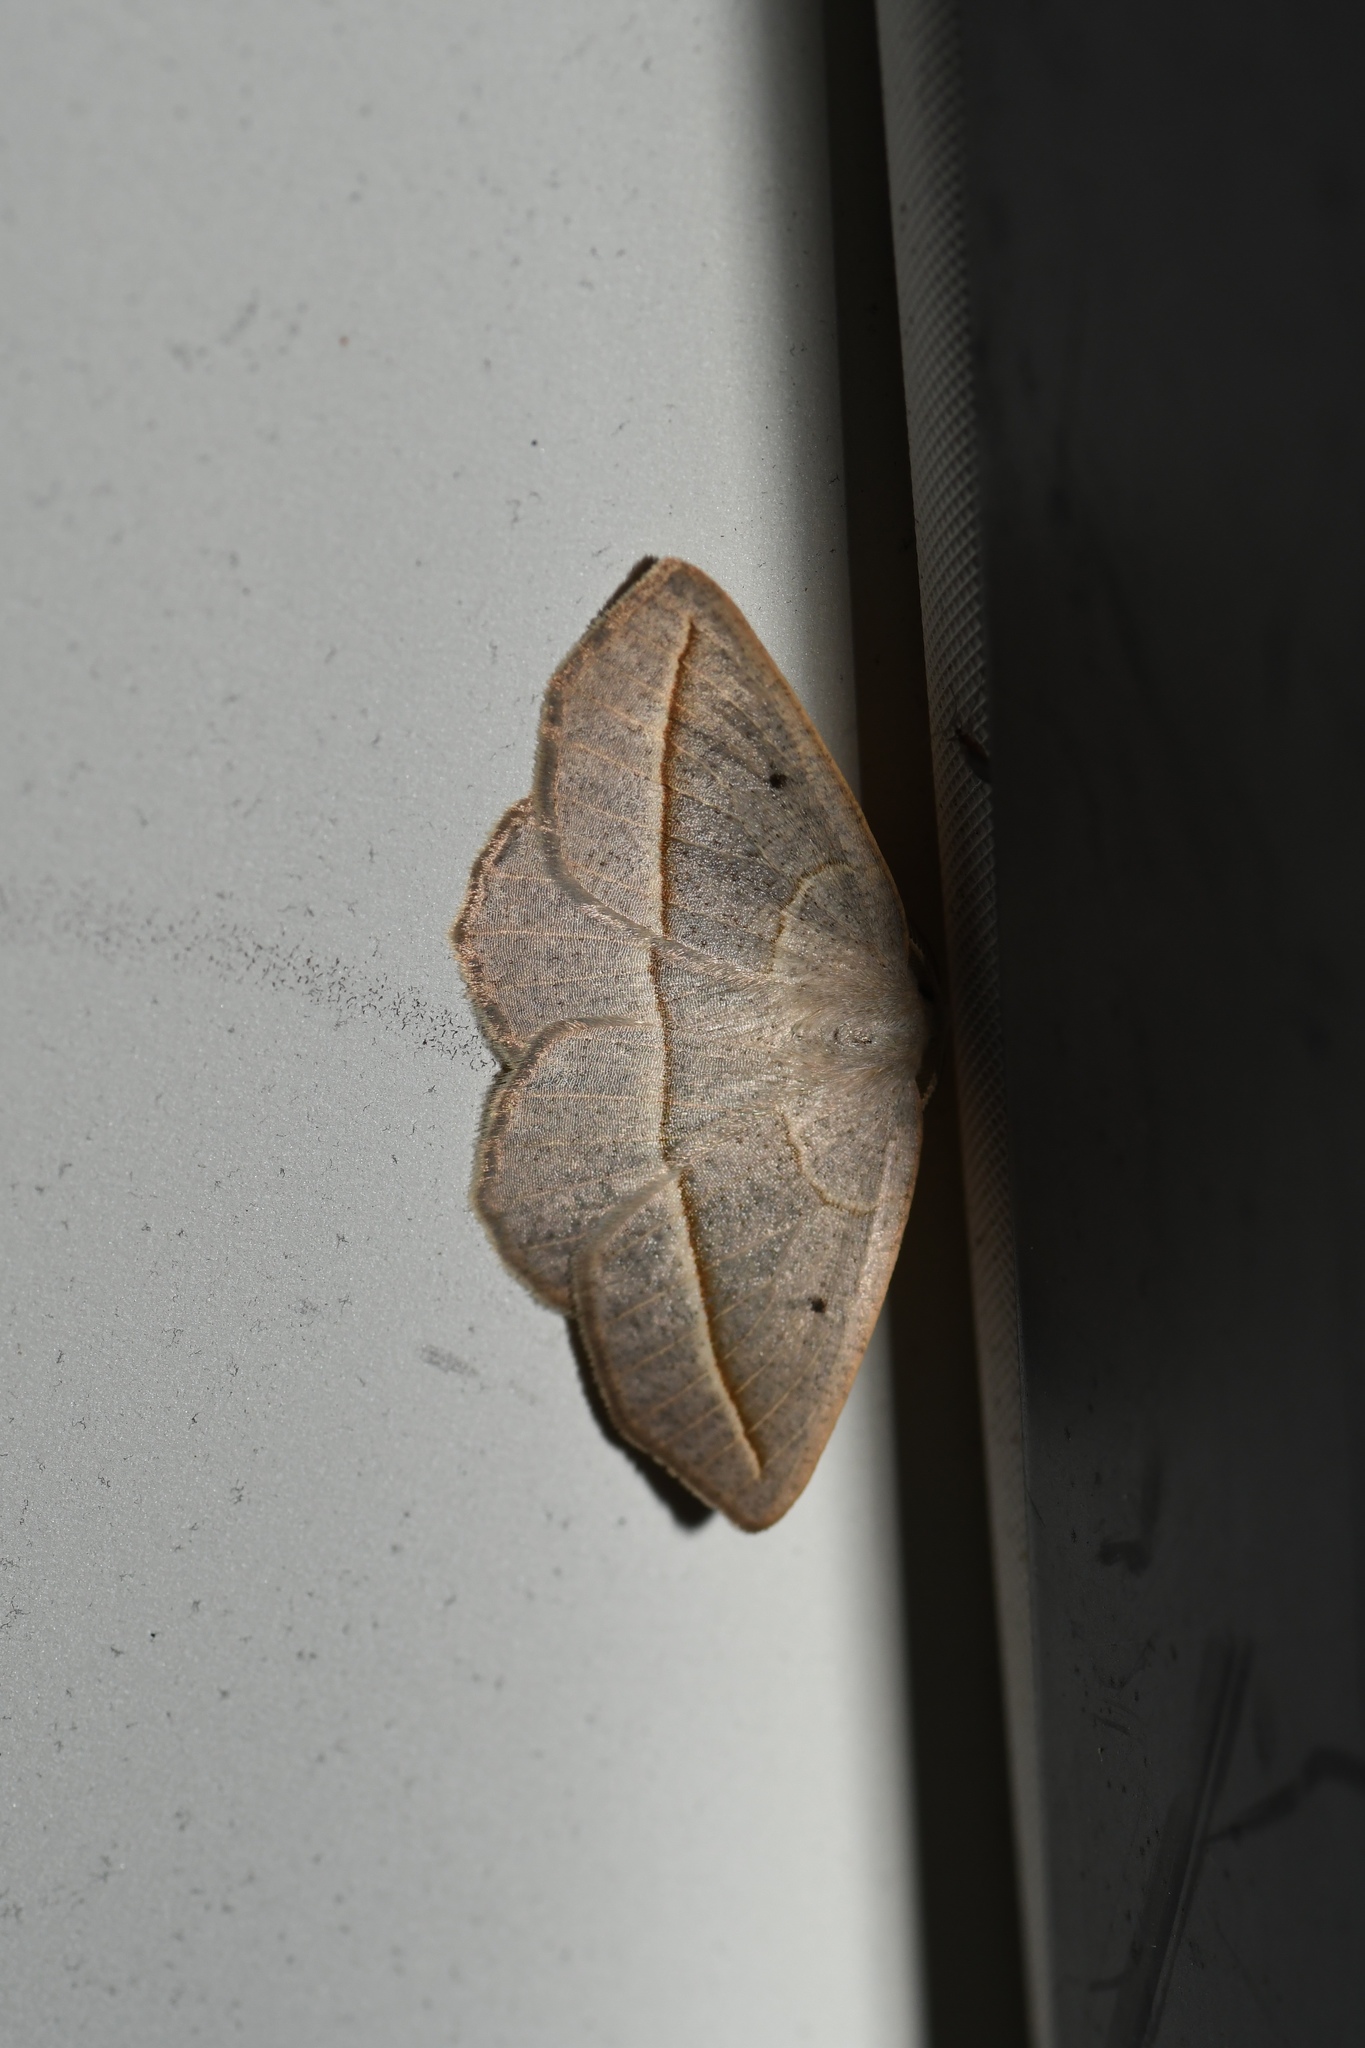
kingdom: Animalia
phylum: Arthropoda
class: Insecta
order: Lepidoptera
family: Geometridae
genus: Eusarca
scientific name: Eusarca confusaria
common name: Confused eusarca
